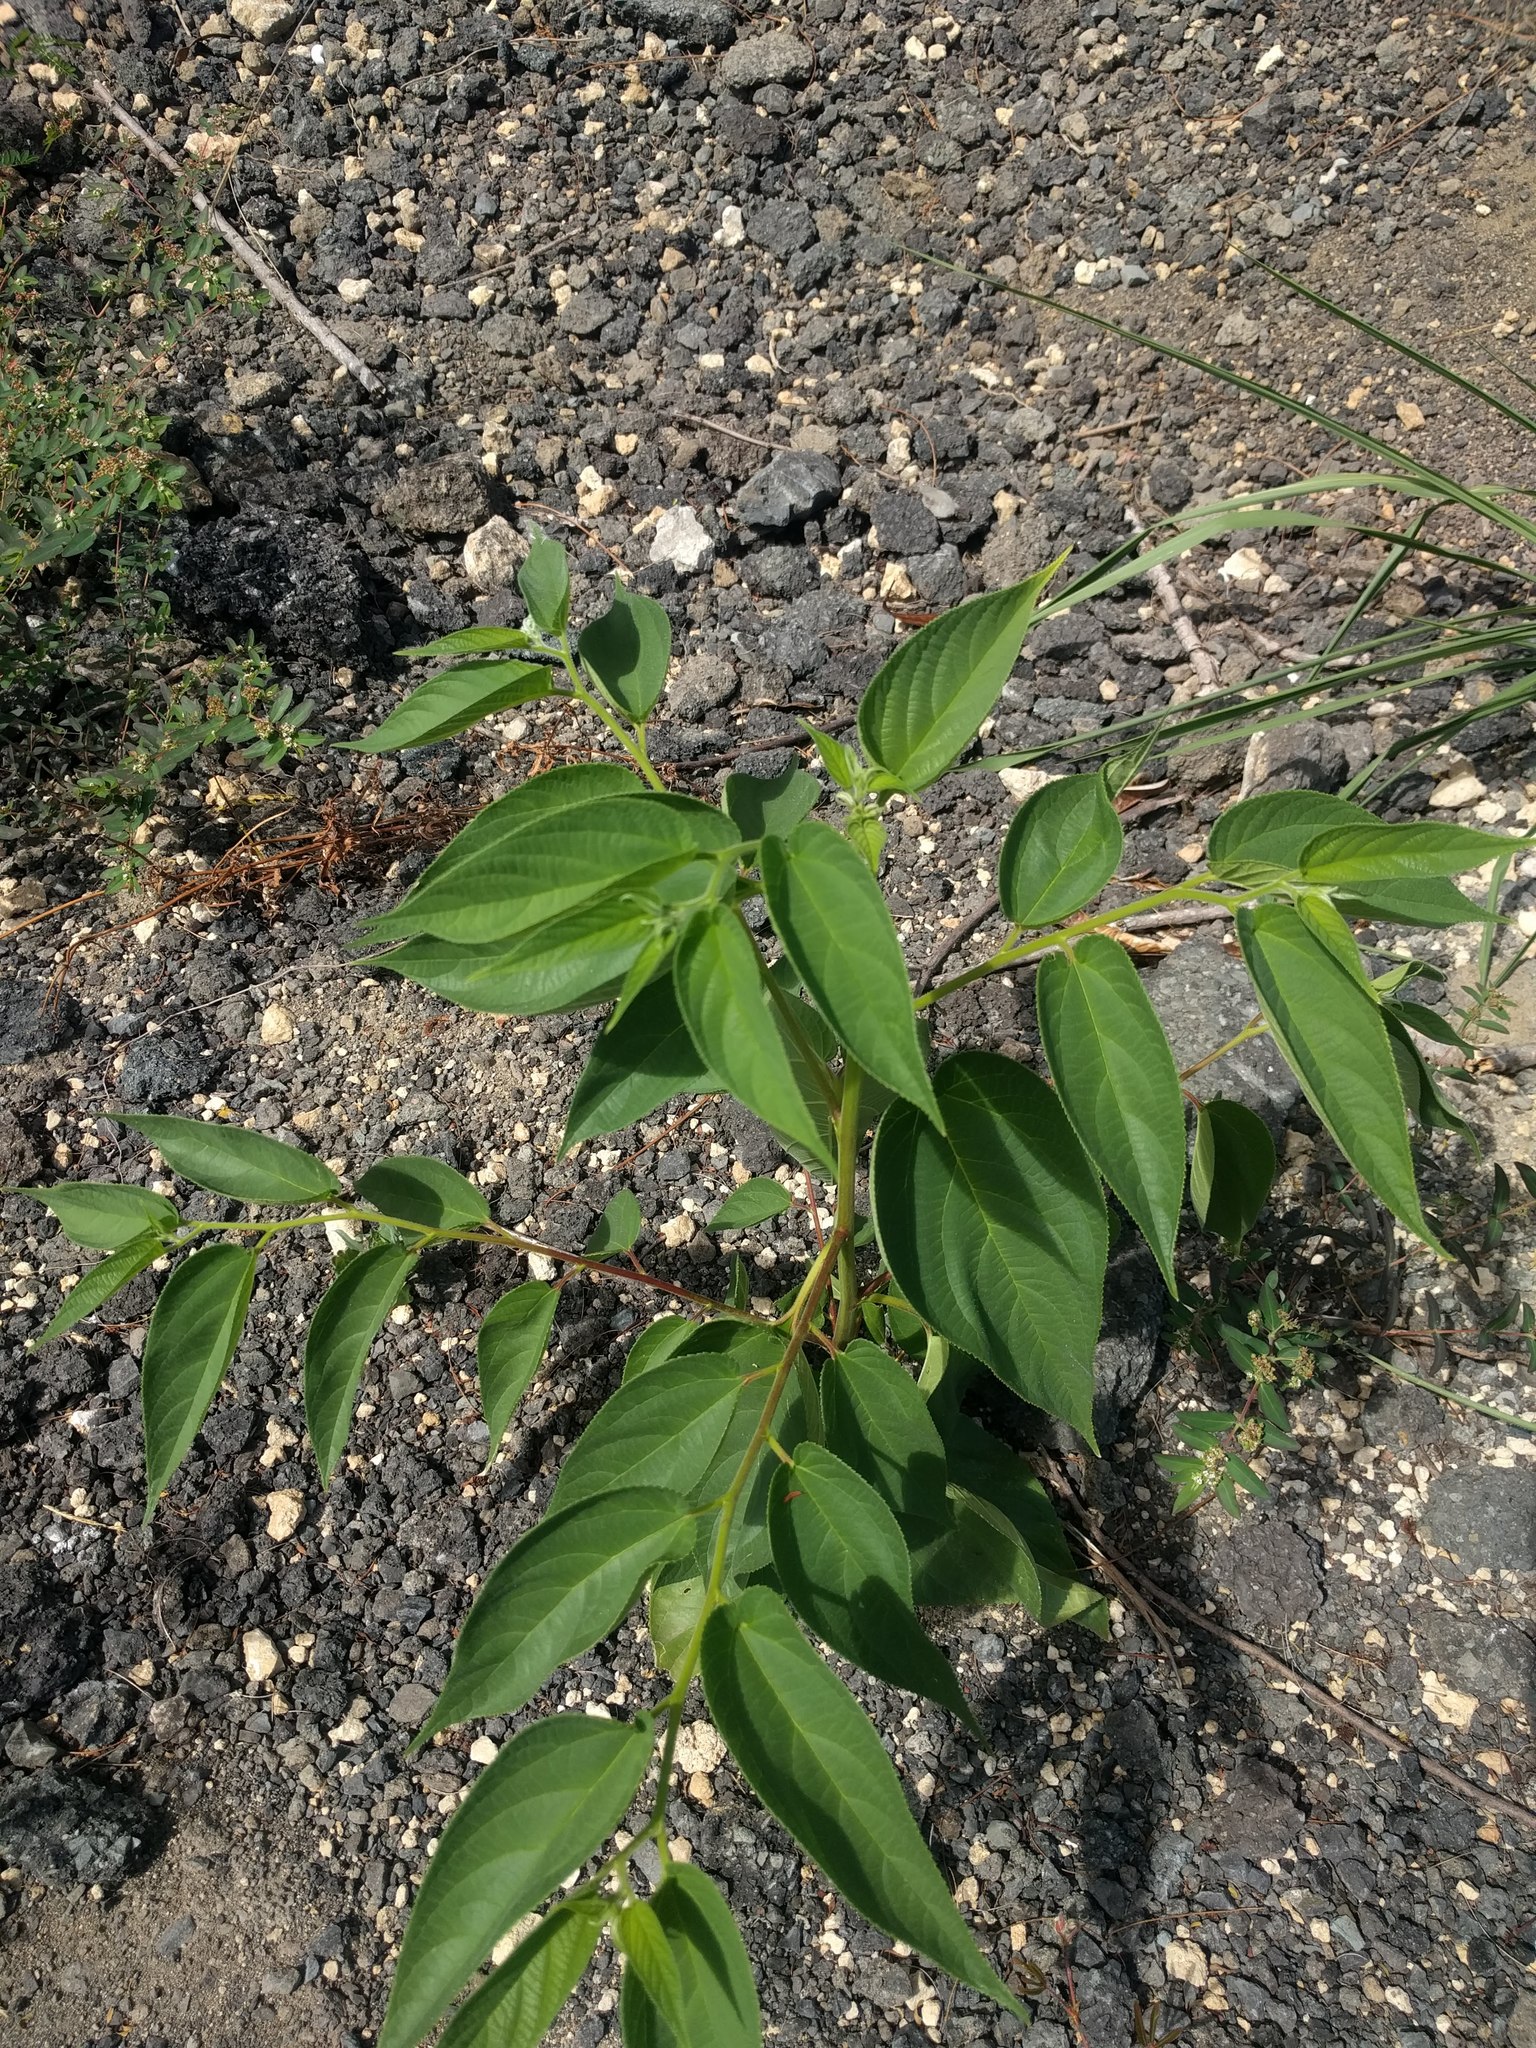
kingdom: Plantae
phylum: Tracheophyta
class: Magnoliopsida
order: Rosales
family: Cannabaceae
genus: Trema
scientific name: Trema orientale
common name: Indian charcoal tree
